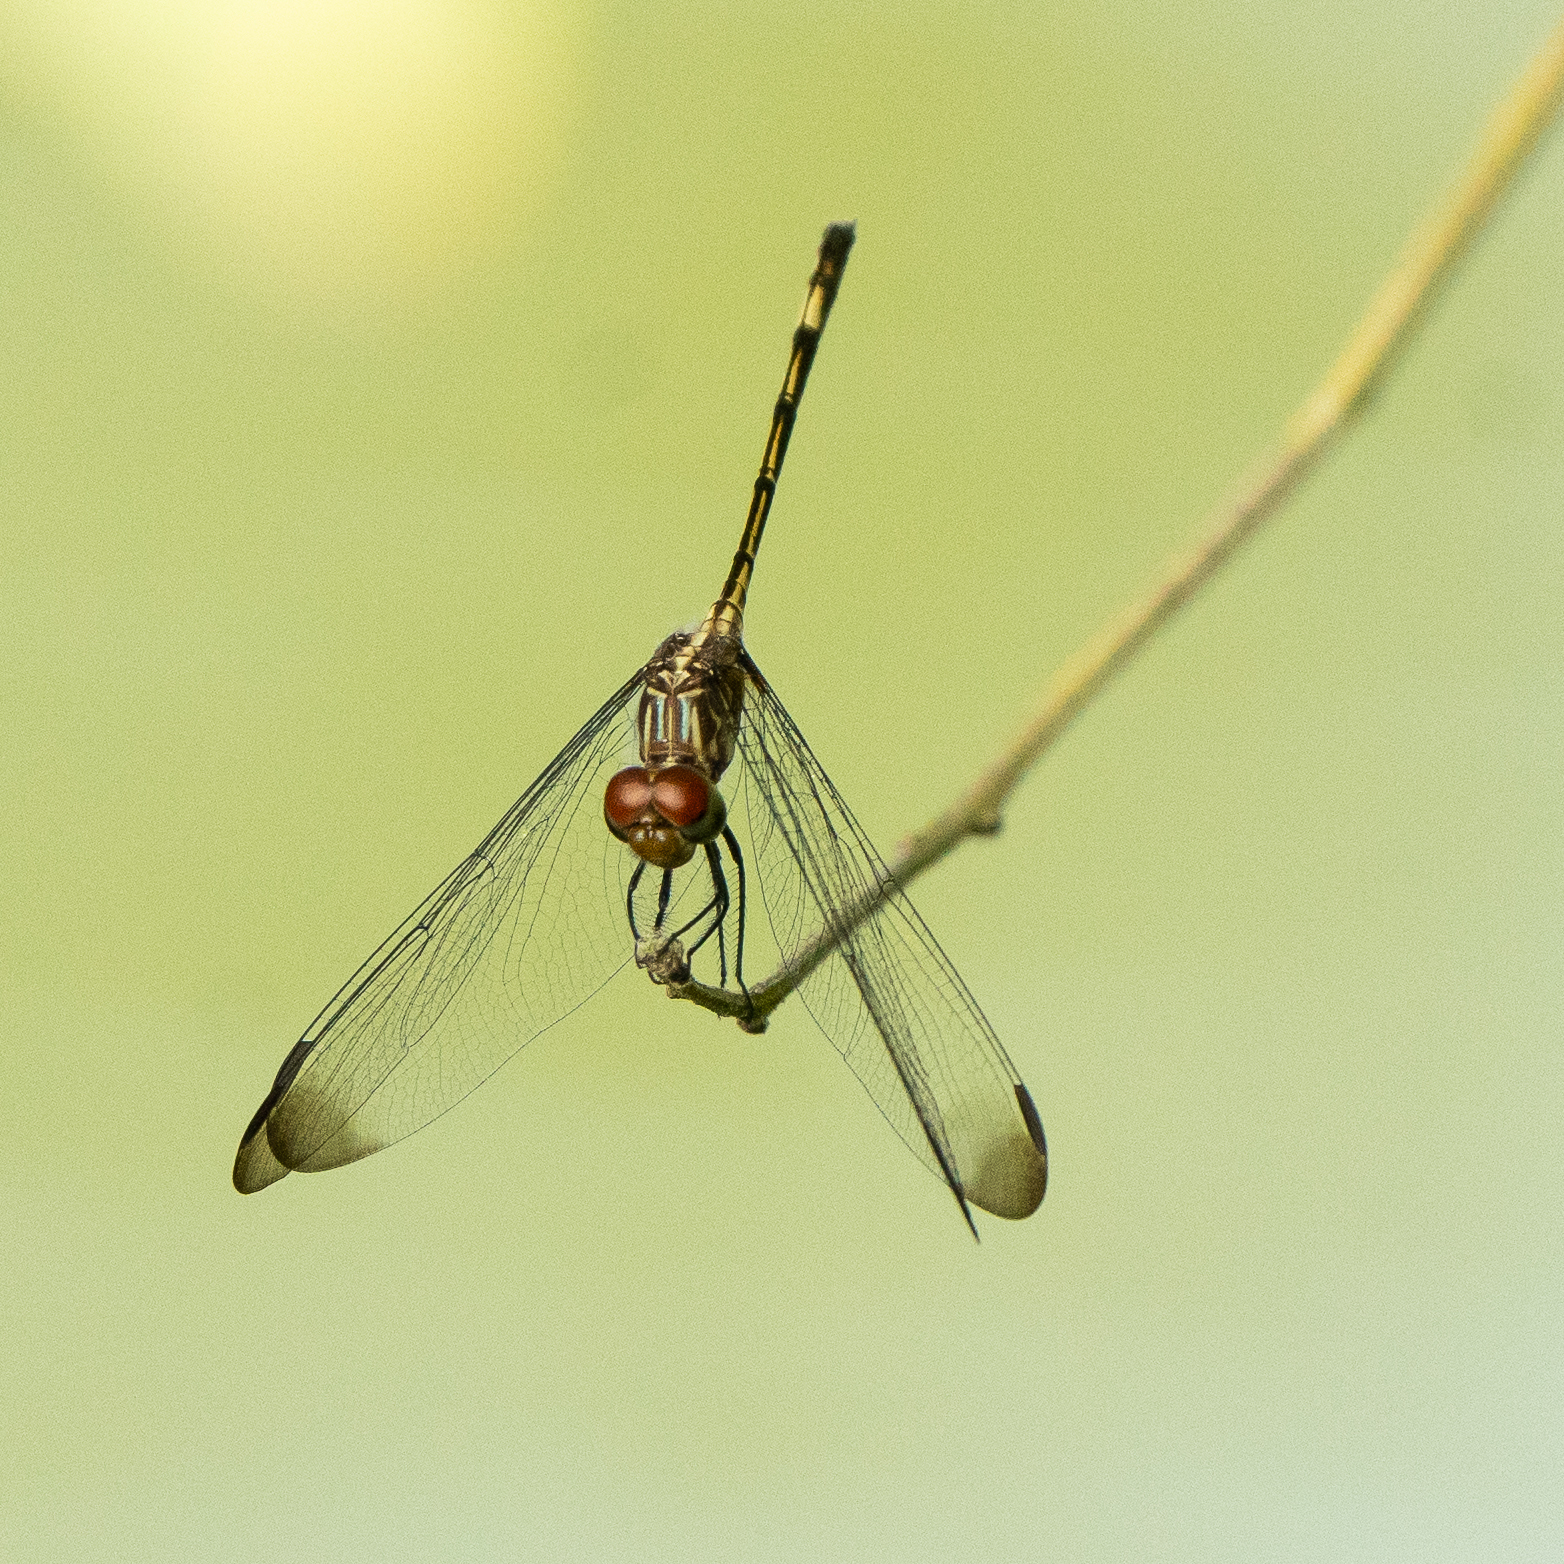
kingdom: Animalia
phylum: Arthropoda
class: Insecta
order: Odonata
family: Libellulidae
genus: Dythemis
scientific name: Dythemis sterilis
